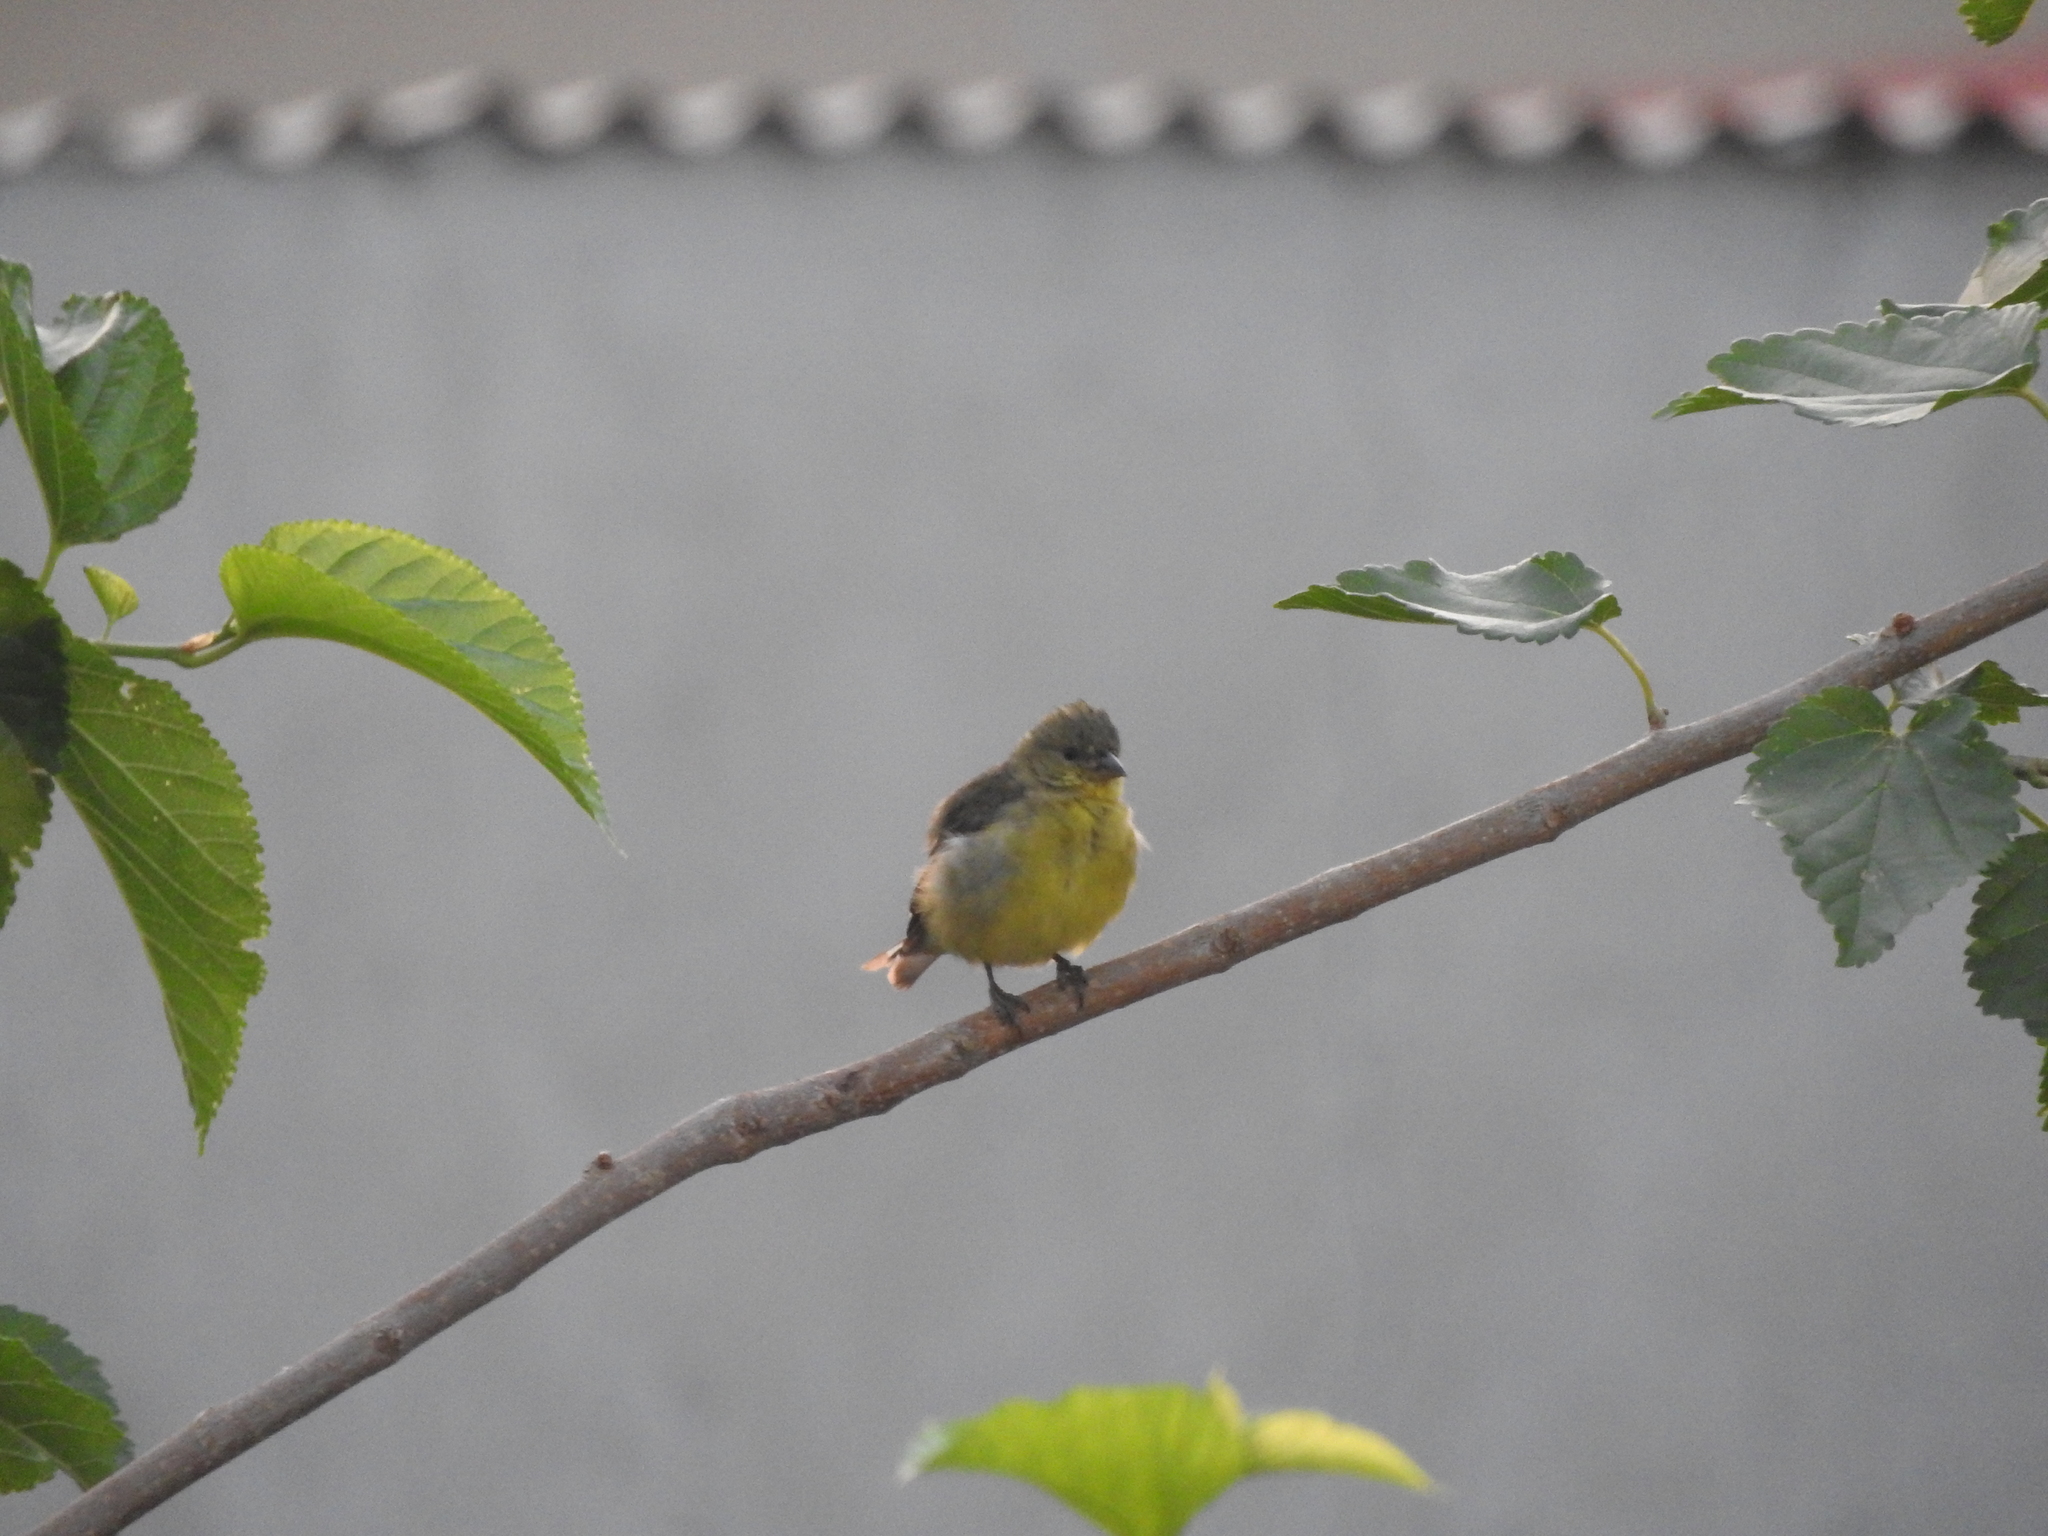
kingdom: Animalia
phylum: Chordata
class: Aves
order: Passeriformes
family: Fringillidae
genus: Spinus
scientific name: Spinus psaltria
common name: Lesser goldfinch
